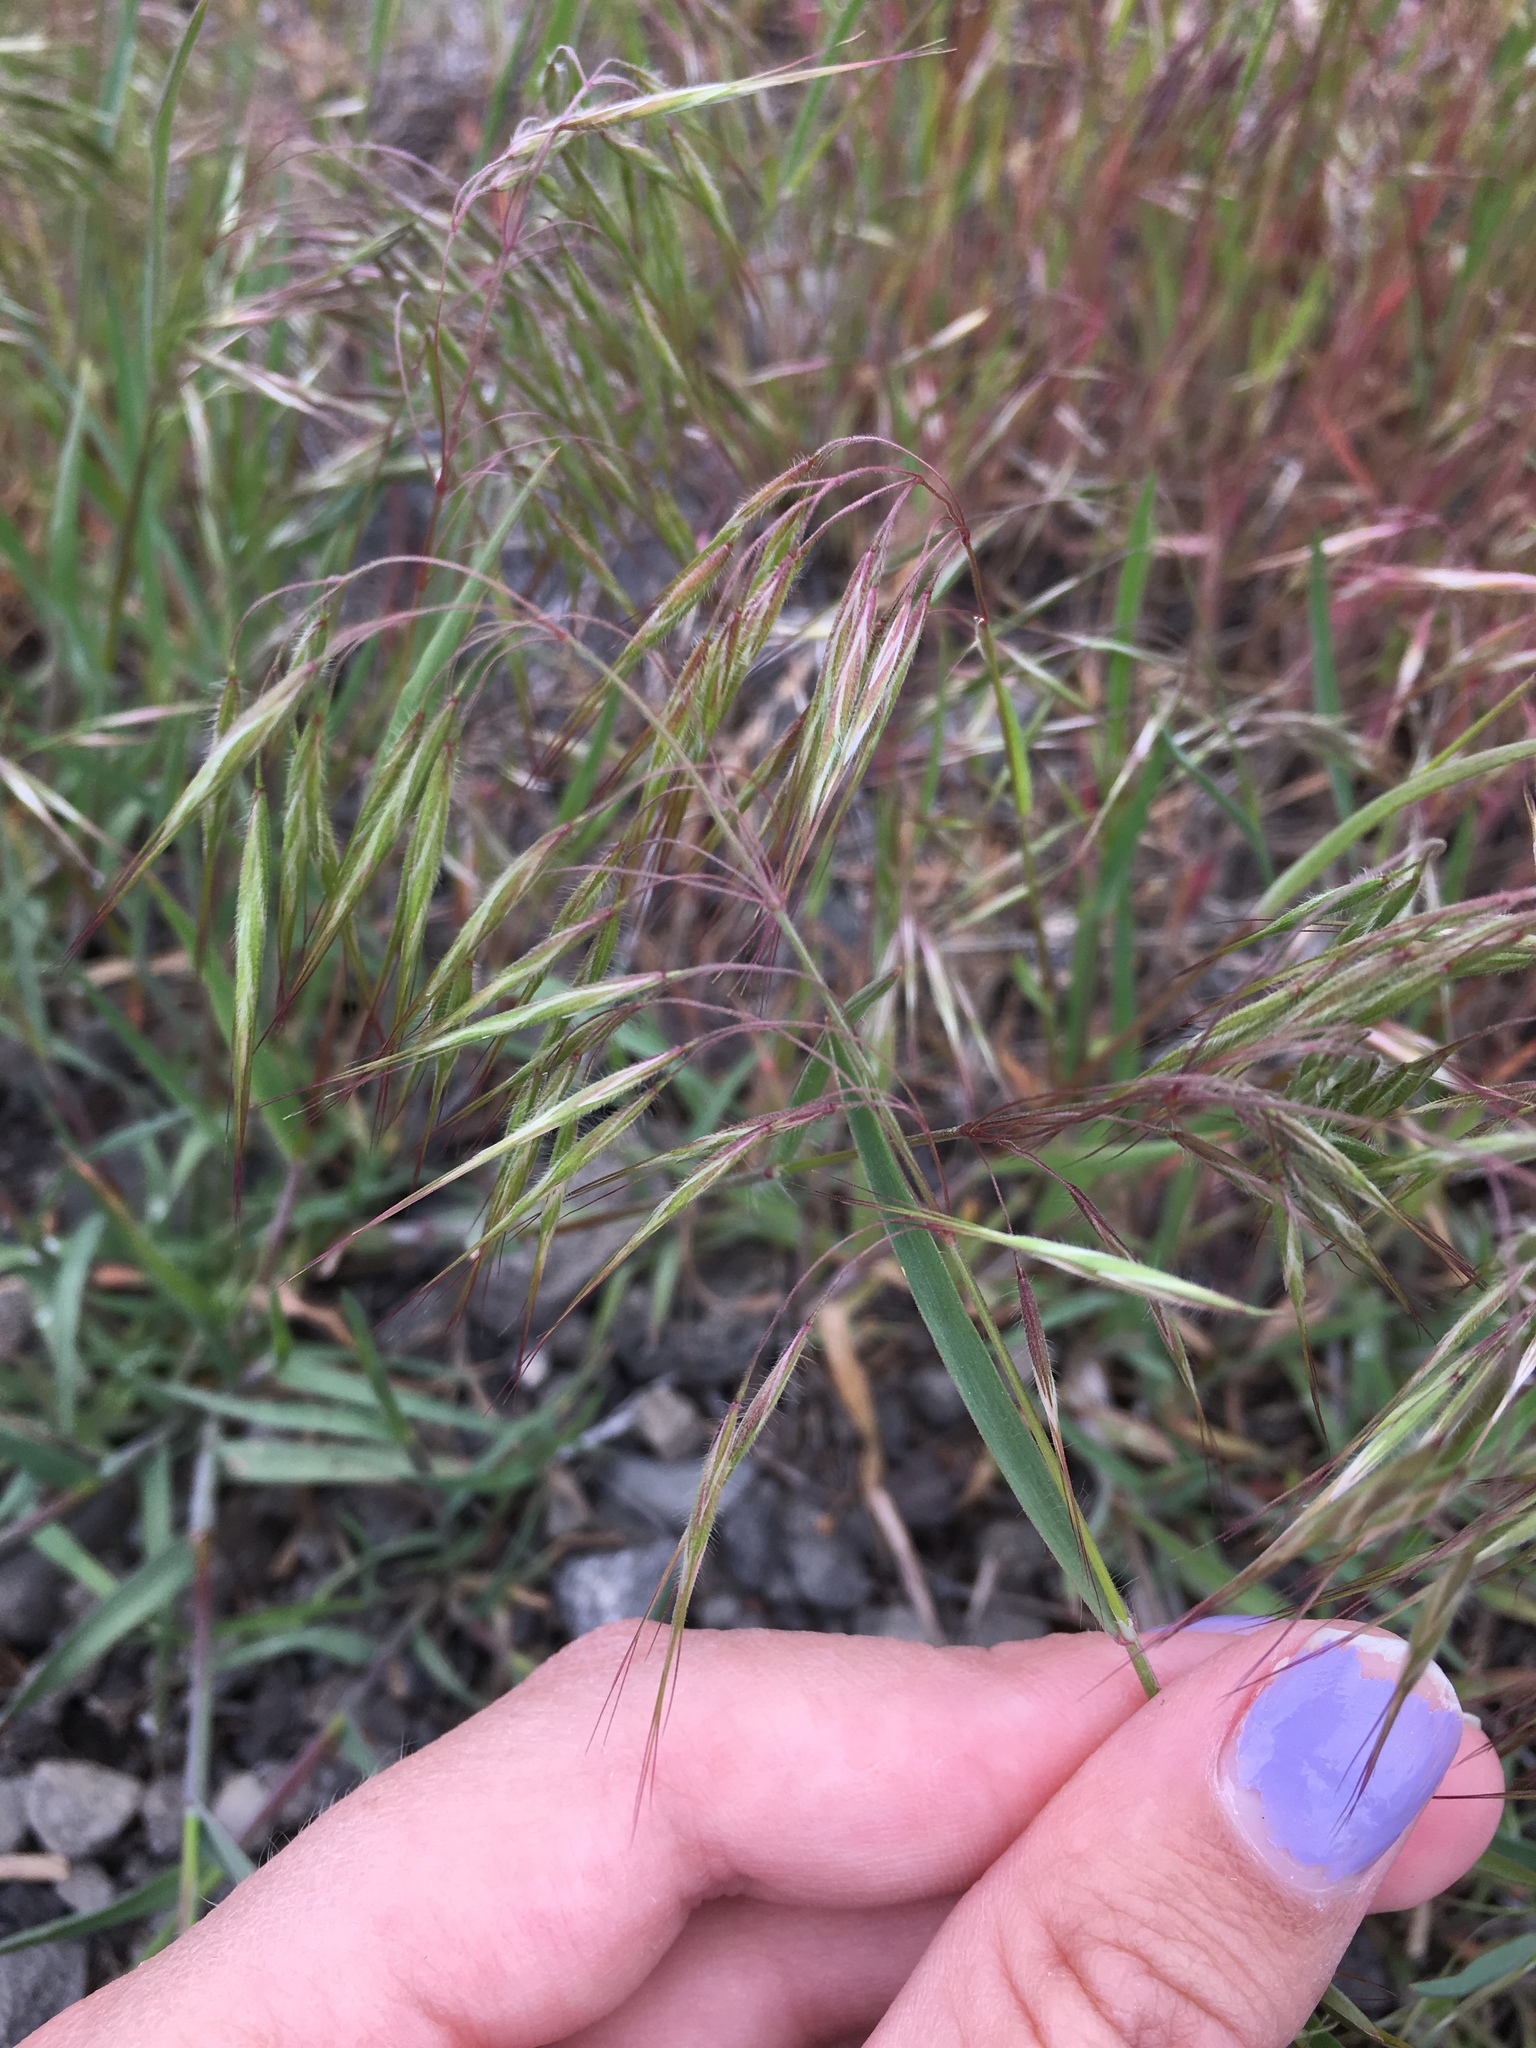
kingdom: Plantae
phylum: Tracheophyta
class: Liliopsida
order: Poales
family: Poaceae
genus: Bromus
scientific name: Bromus tectorum
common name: Cheatgrass
